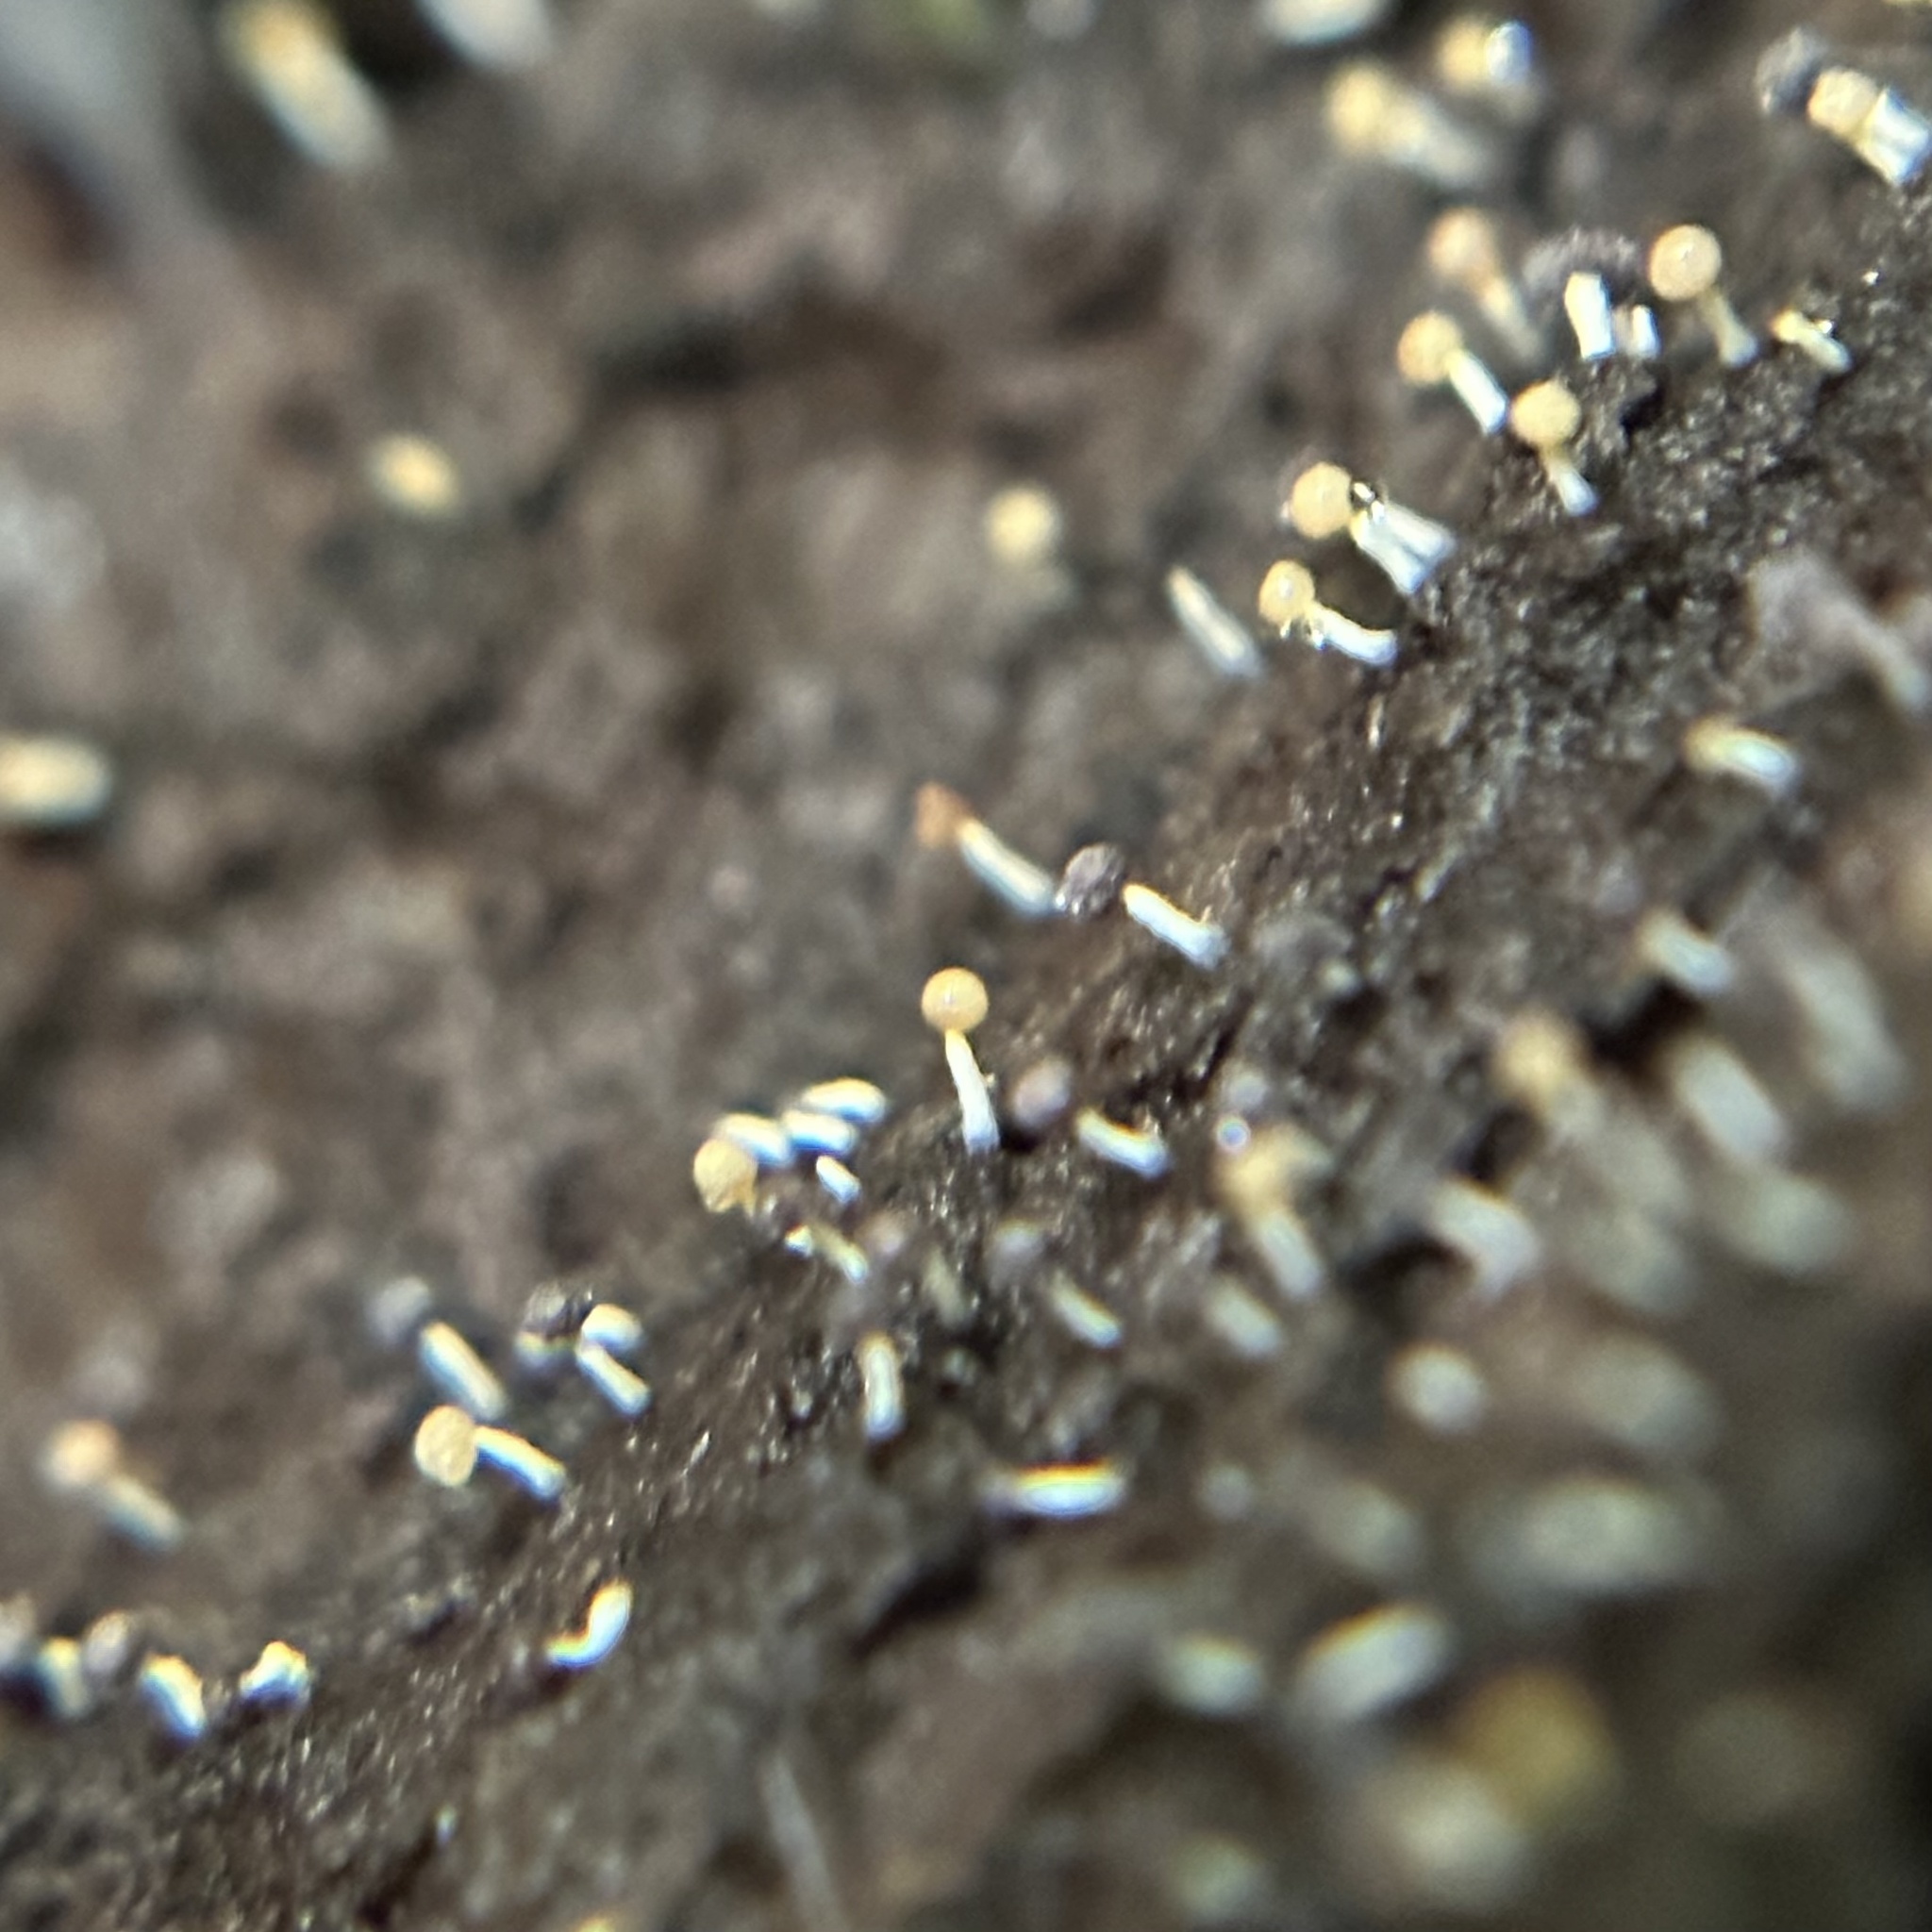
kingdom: Protozoa
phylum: Mycetozoa
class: Myxomycetes
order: Physarales
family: Physaraceae
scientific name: Physaraceae
